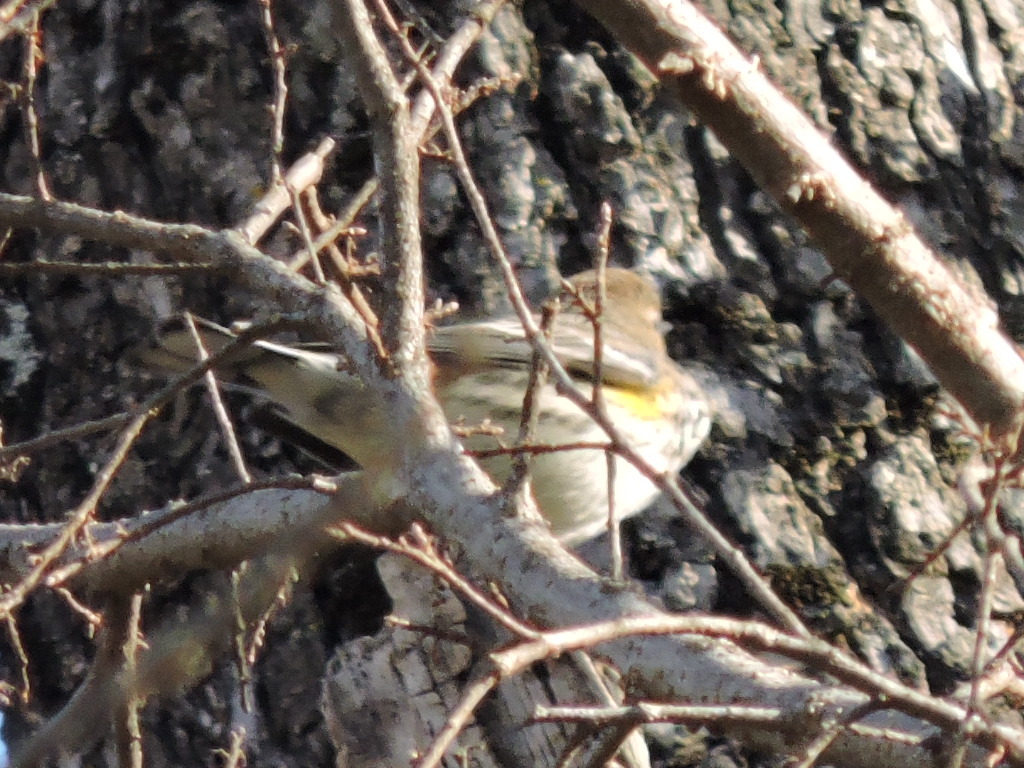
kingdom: Animalia
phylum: Chordata
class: Aves
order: Passeriformes
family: Parulidae
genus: Setophaga
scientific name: Setophaga coronata
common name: Myrtle warbler
